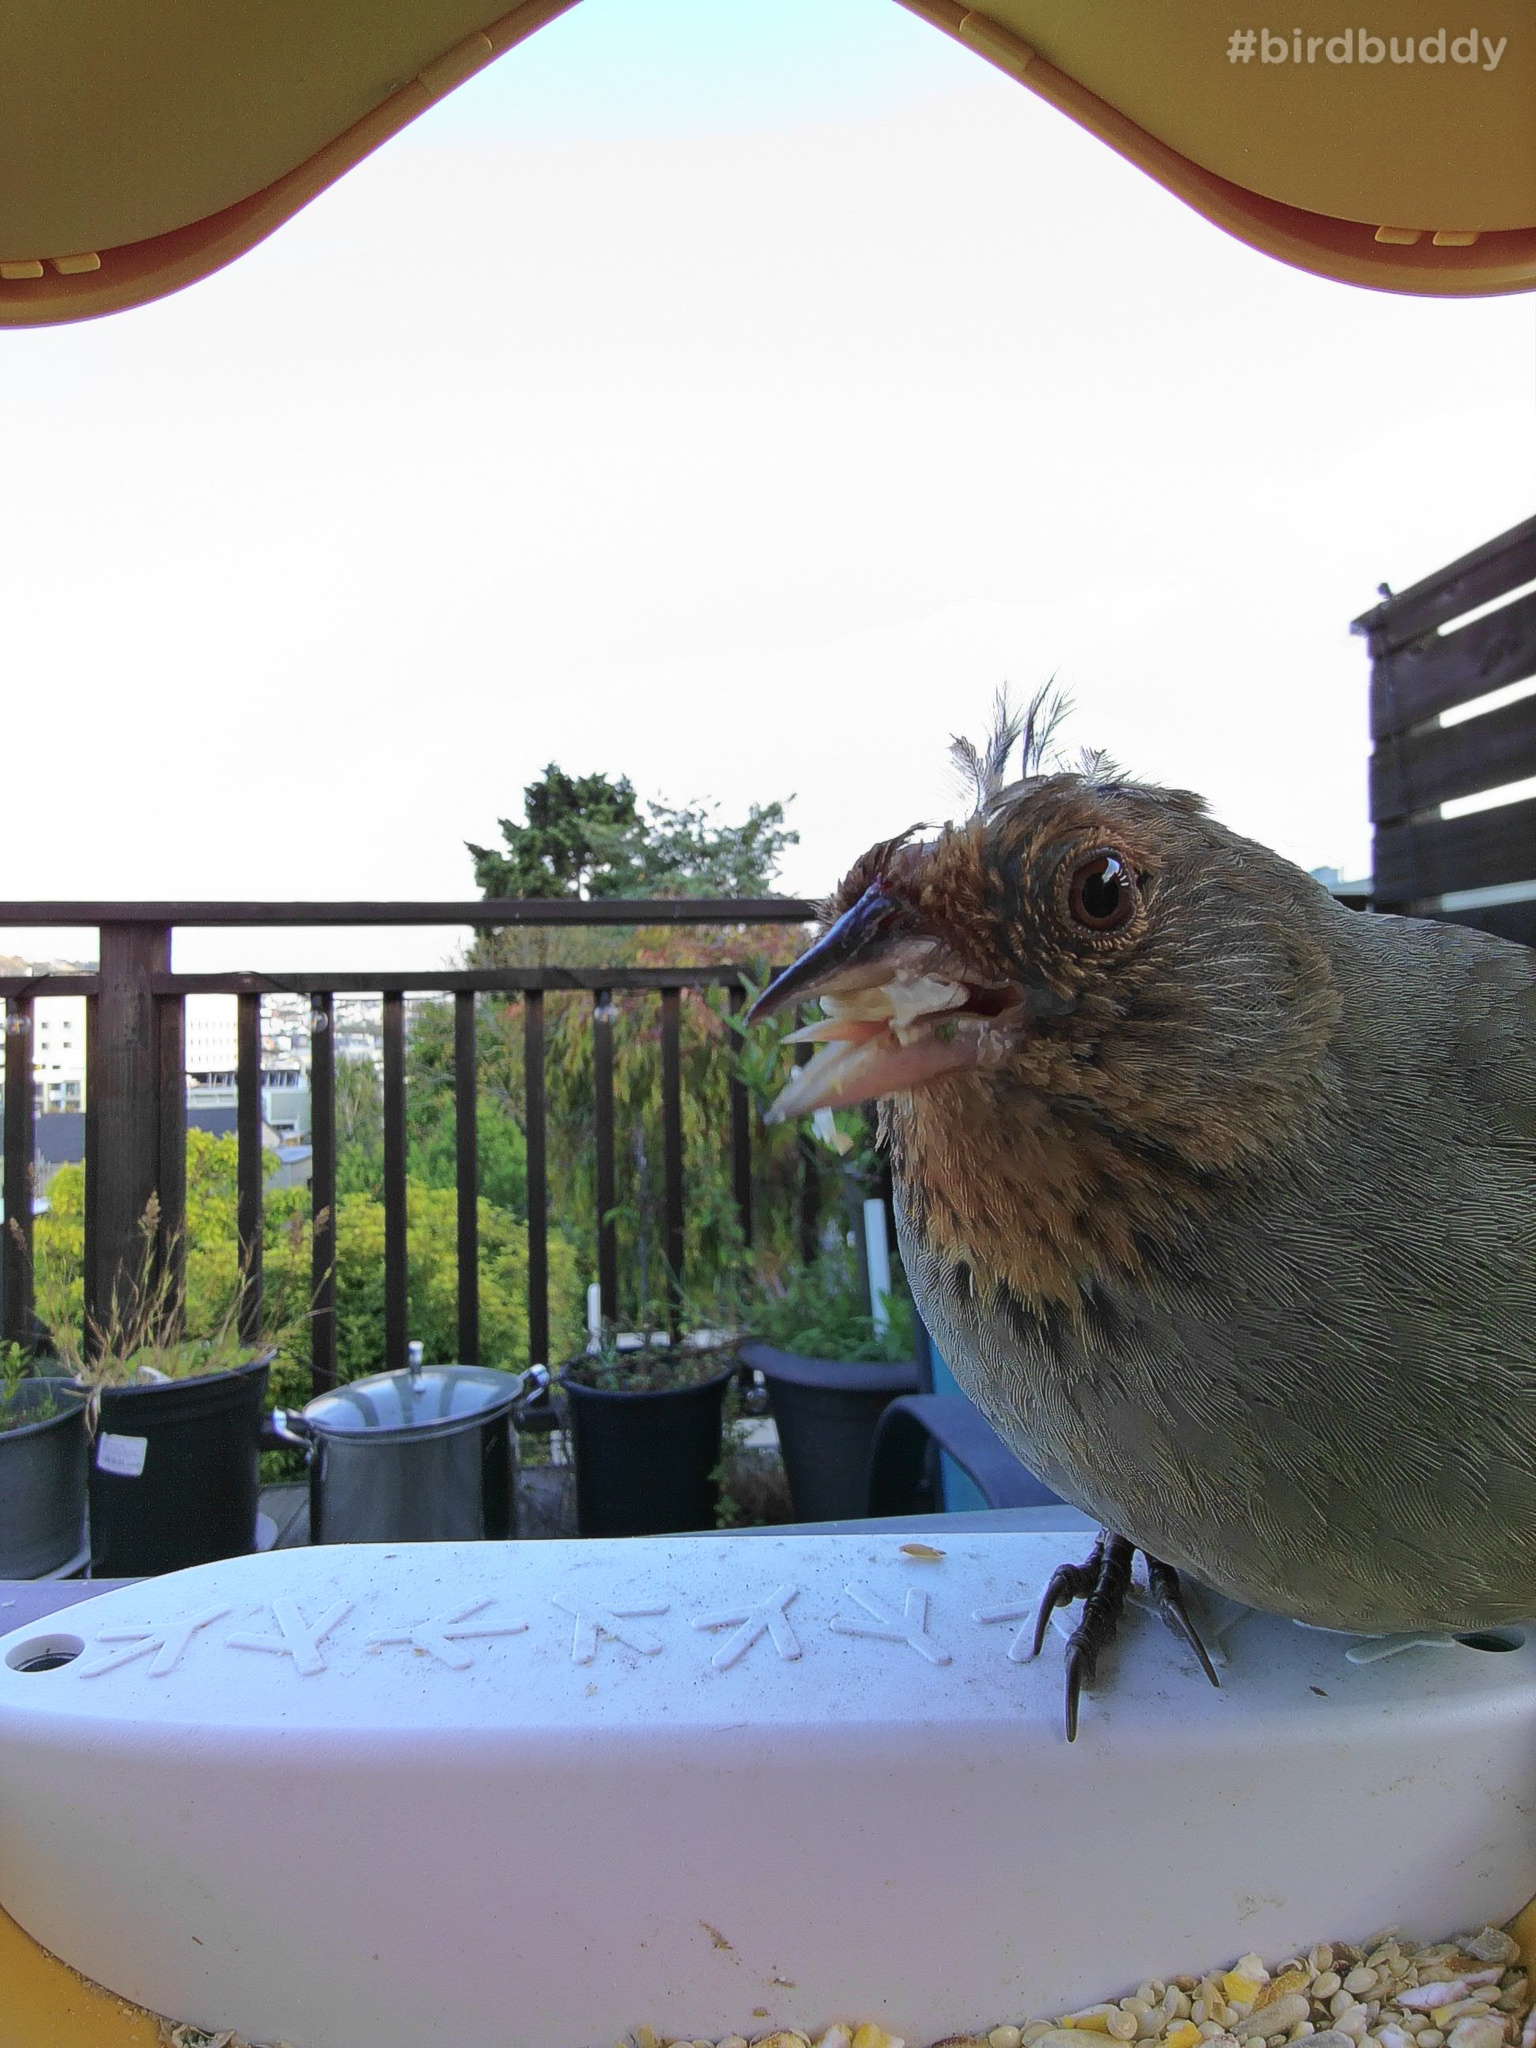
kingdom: Animalia
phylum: Chordata
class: Aves
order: Passeriformes
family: Passerellidae
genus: Melozone
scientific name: Melozone crissalis
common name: California towhee
